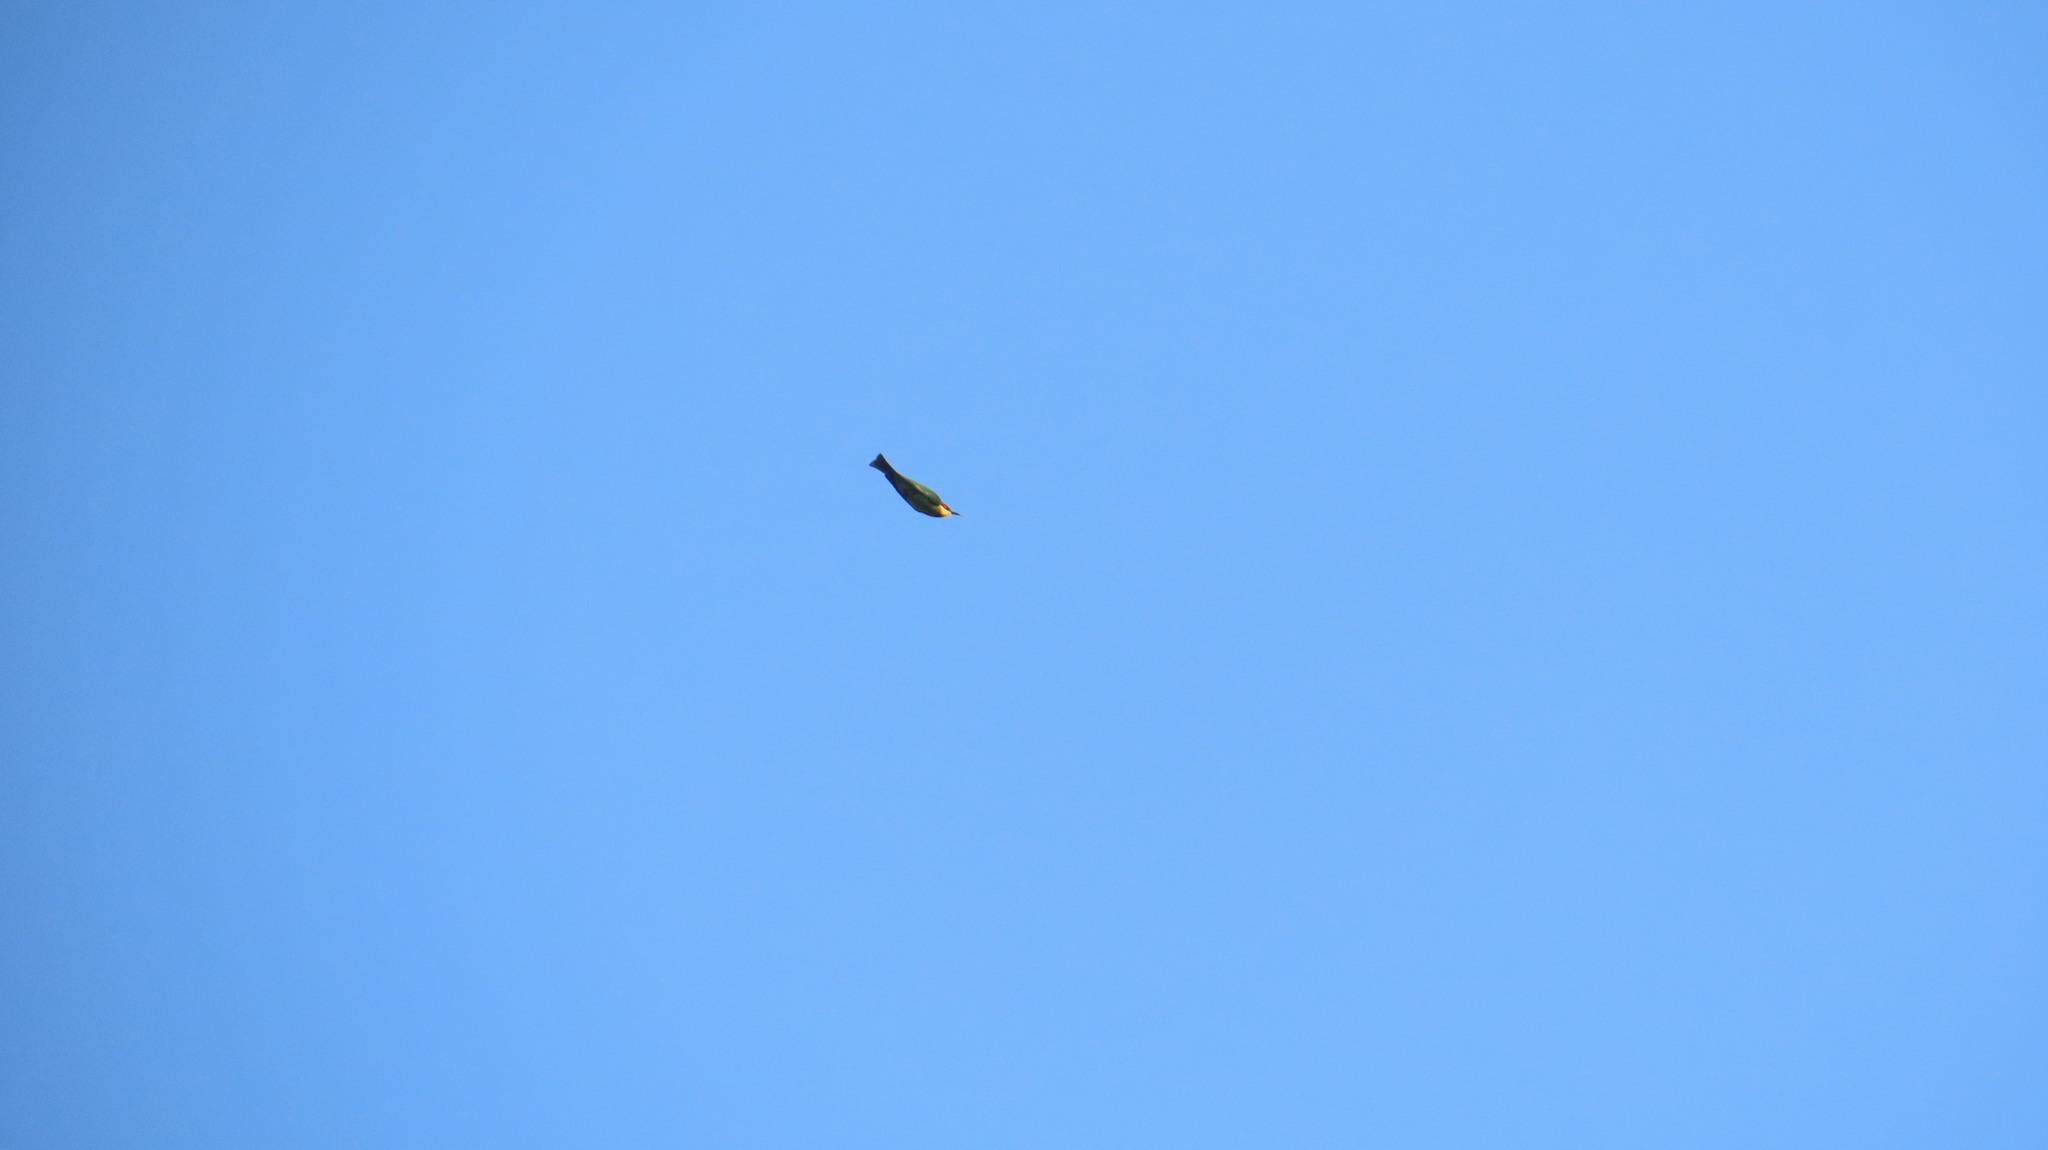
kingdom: Animalia
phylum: Chordata
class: Aves
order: Coraciiformes
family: Meropidae
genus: Merops
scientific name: Merops leschenaulti
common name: Chestnut-headed bee-eater
